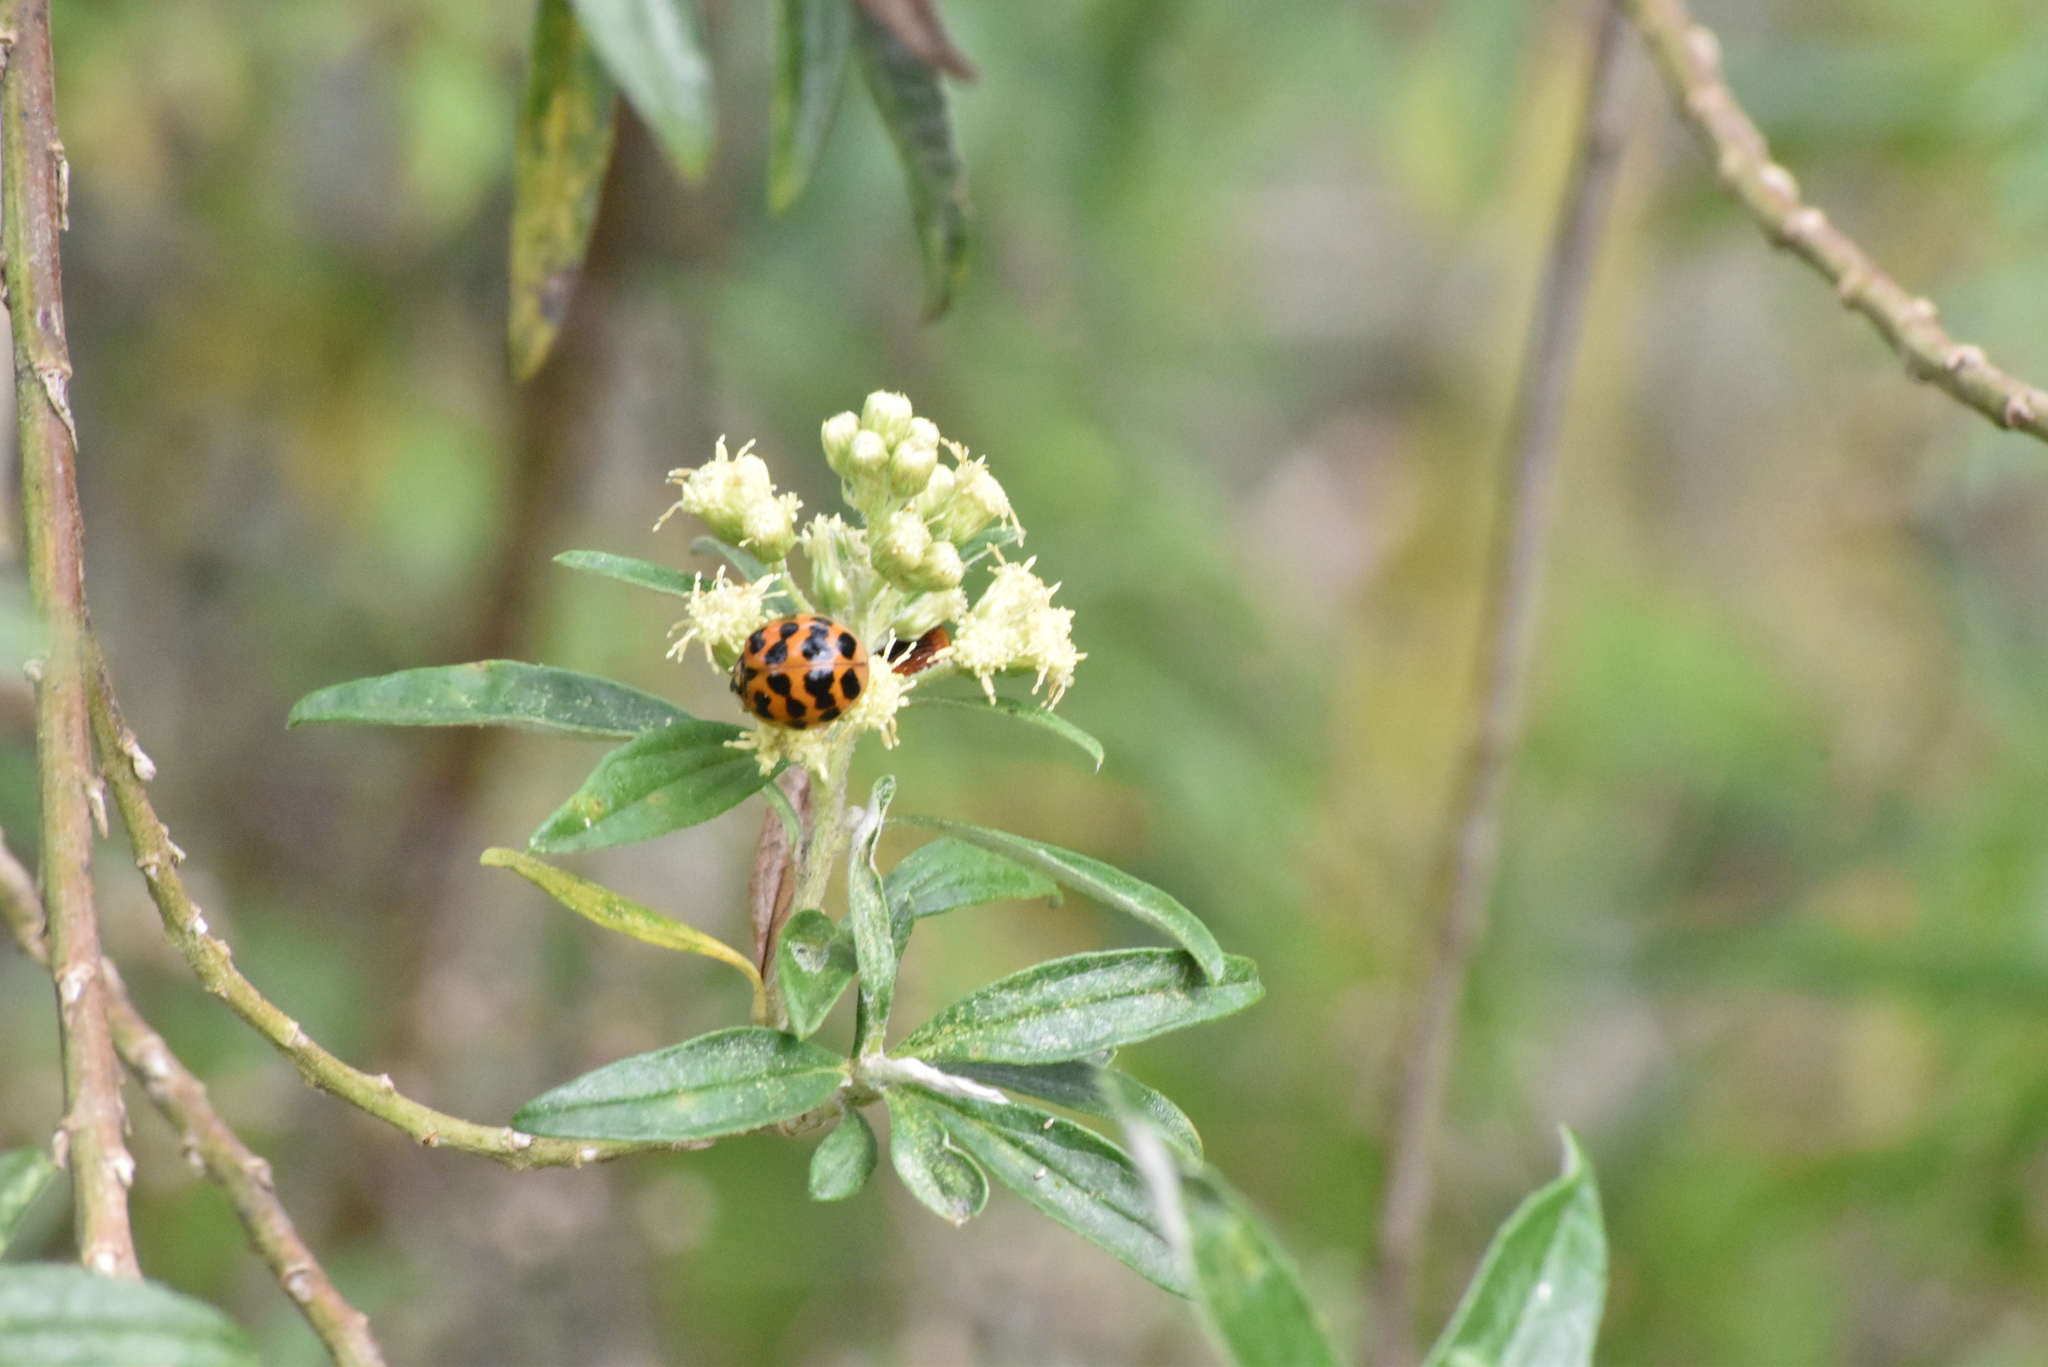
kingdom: Animalia
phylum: Arthropoda
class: Insecta
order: Coleoptera
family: Coccinellidae
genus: Harmonia
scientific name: Harmonia axyridis
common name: Harlequin ladybird
